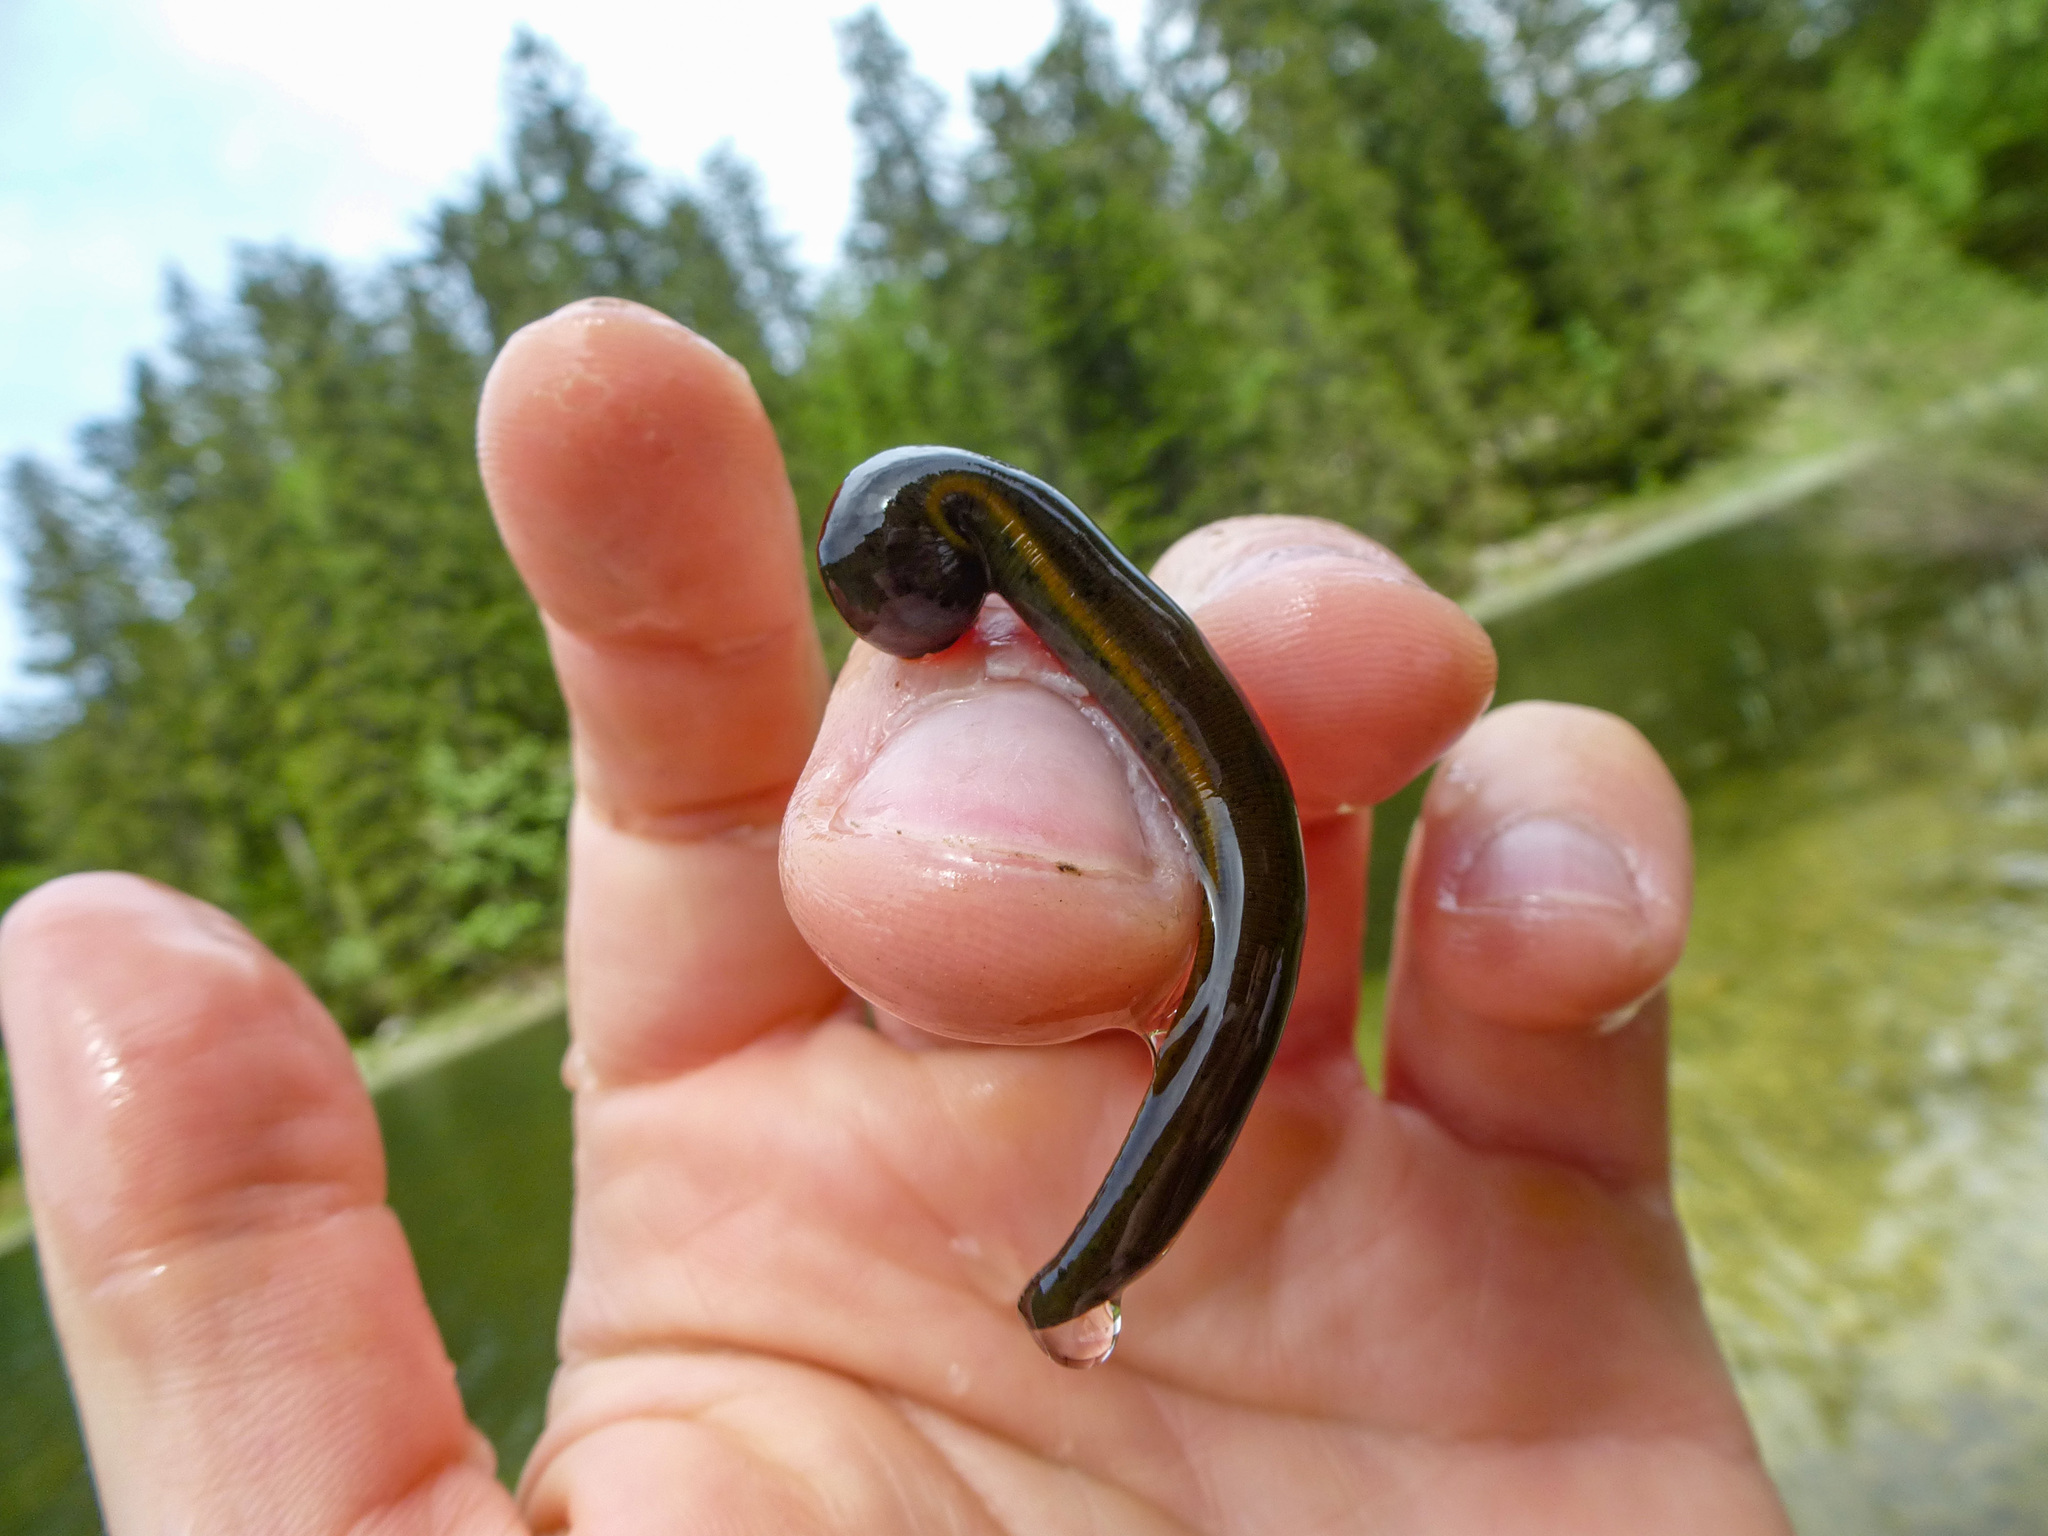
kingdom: Animalia
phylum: Annelida
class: Clitellata
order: Arhynchobdellida
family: Haemopidae
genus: Haemopis
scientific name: Haemopis sanguisuga
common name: Horse leech
